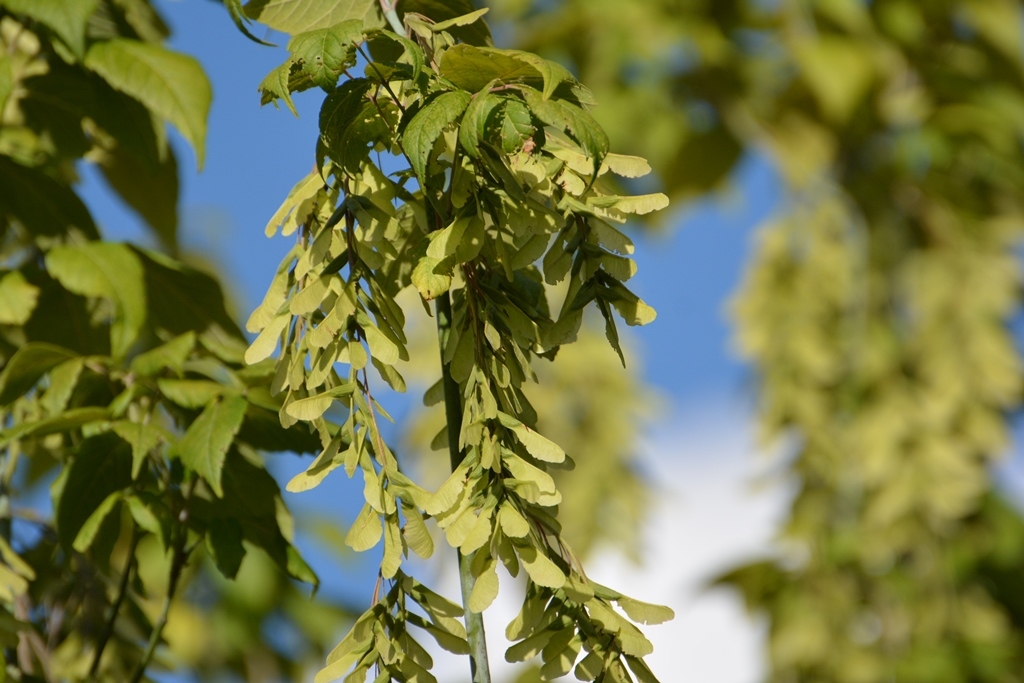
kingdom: Plantae
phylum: Tracheophyta
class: Magnoliopsida
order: Sapindales
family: Sapindaceae
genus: Acer
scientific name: Acer negundo
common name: Ashleaf maple
